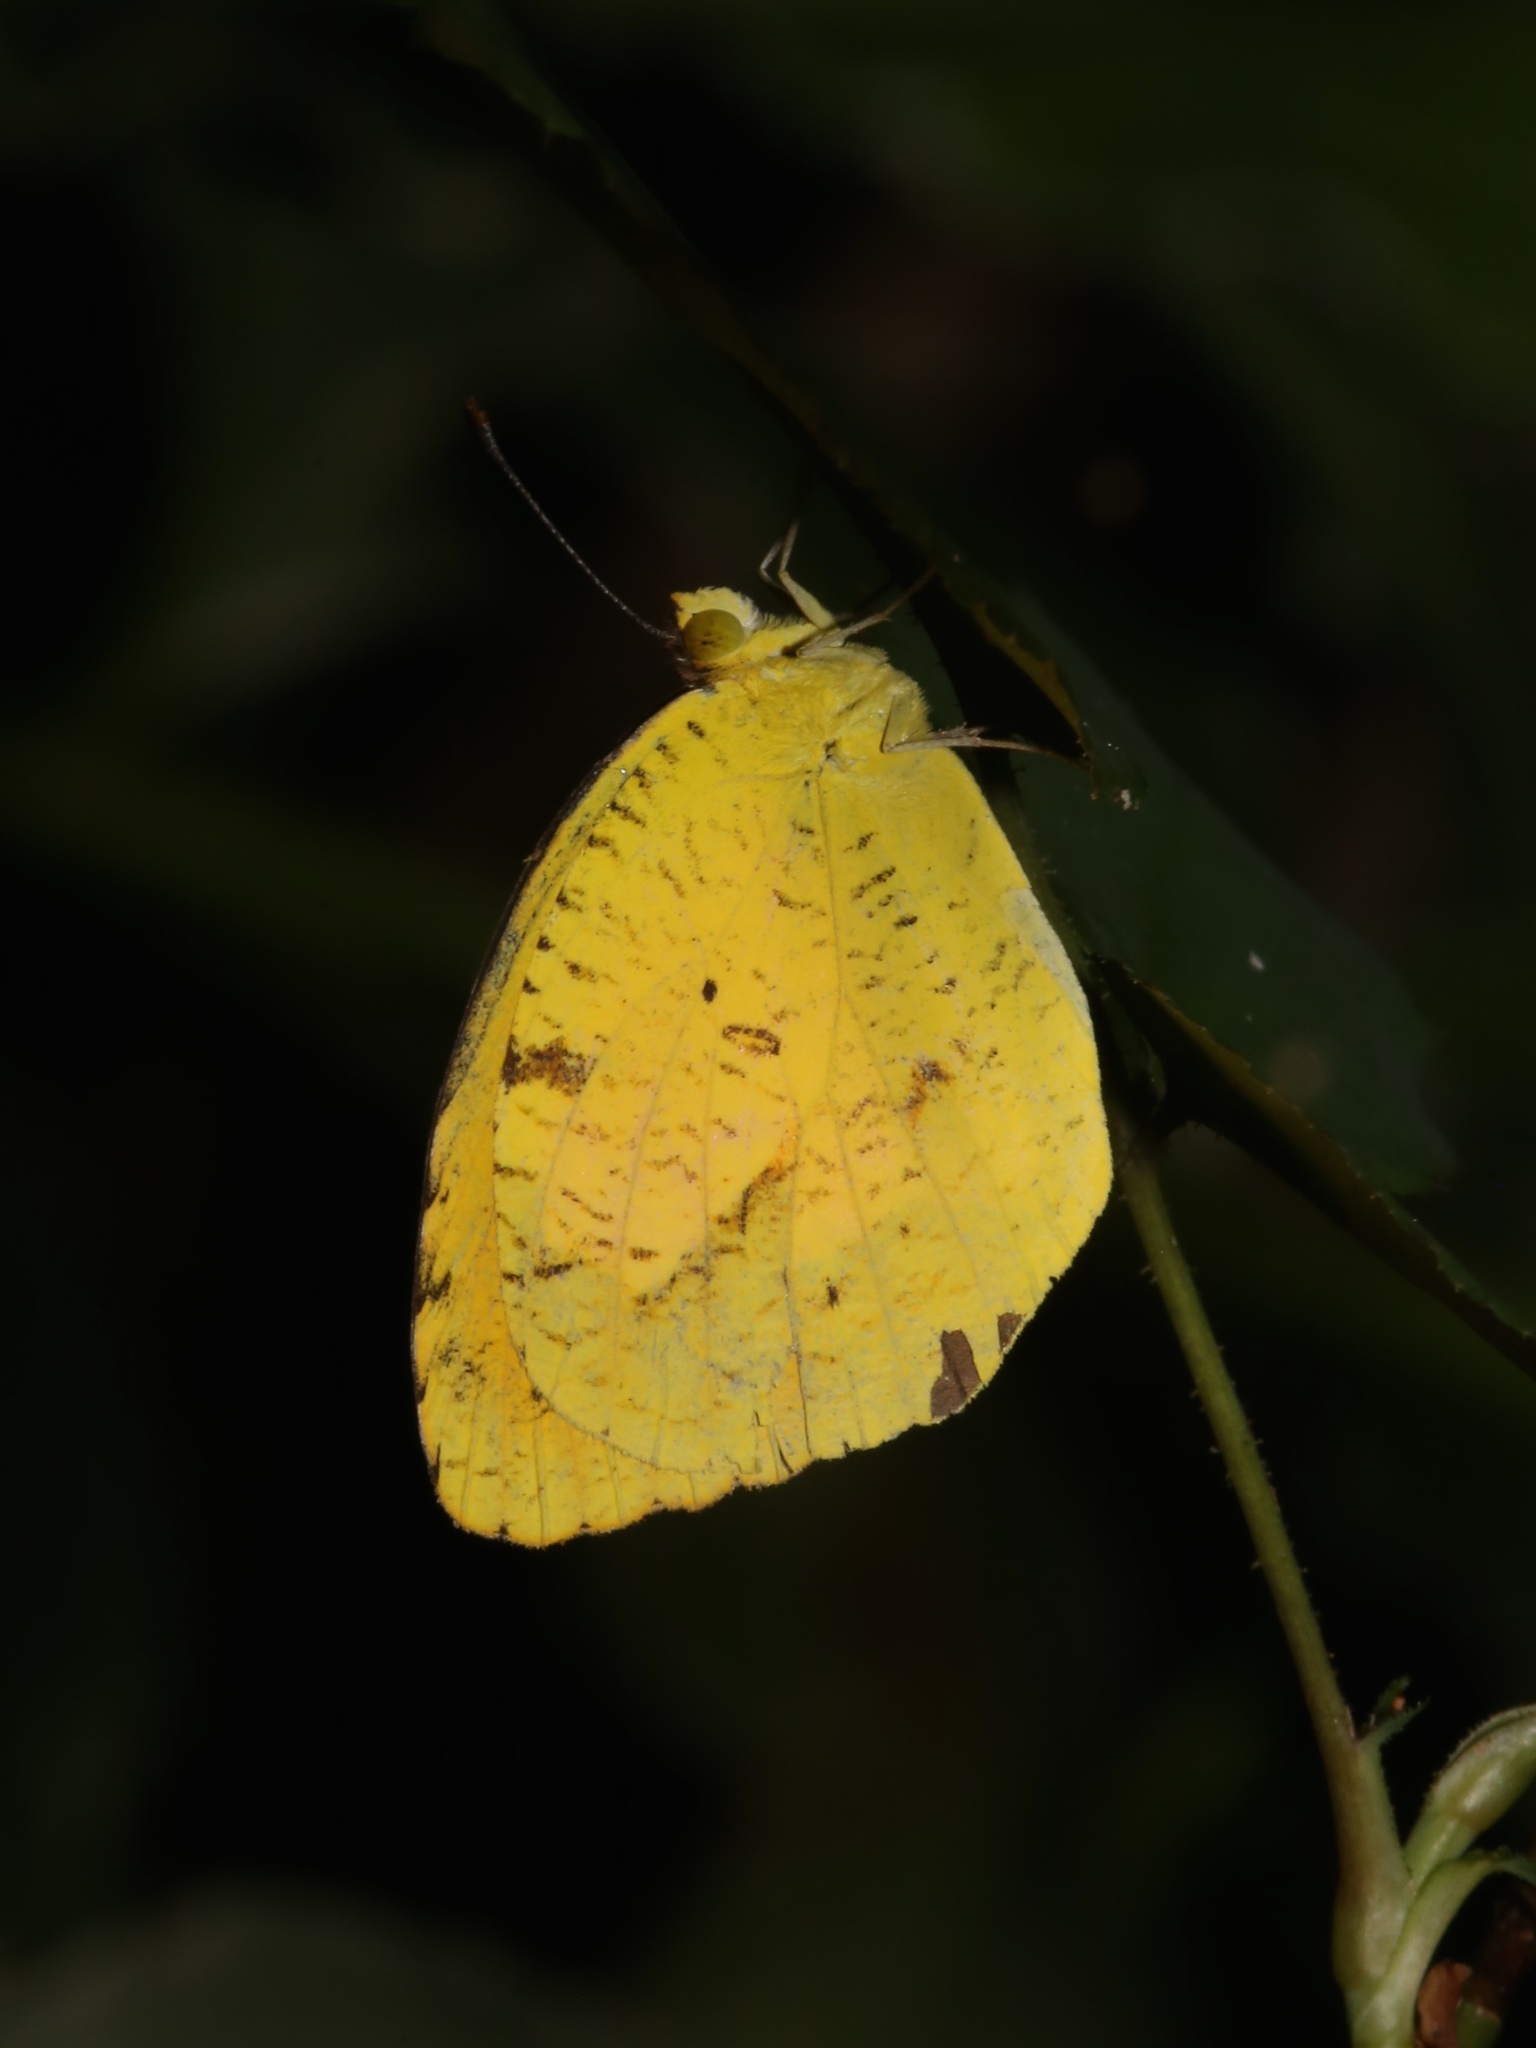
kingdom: Animalia
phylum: Arthropoda
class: Insecta
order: Lepidoptera
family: Pieridae
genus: Abaeis
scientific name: Abaeis nicippe
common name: Sleepy orange
